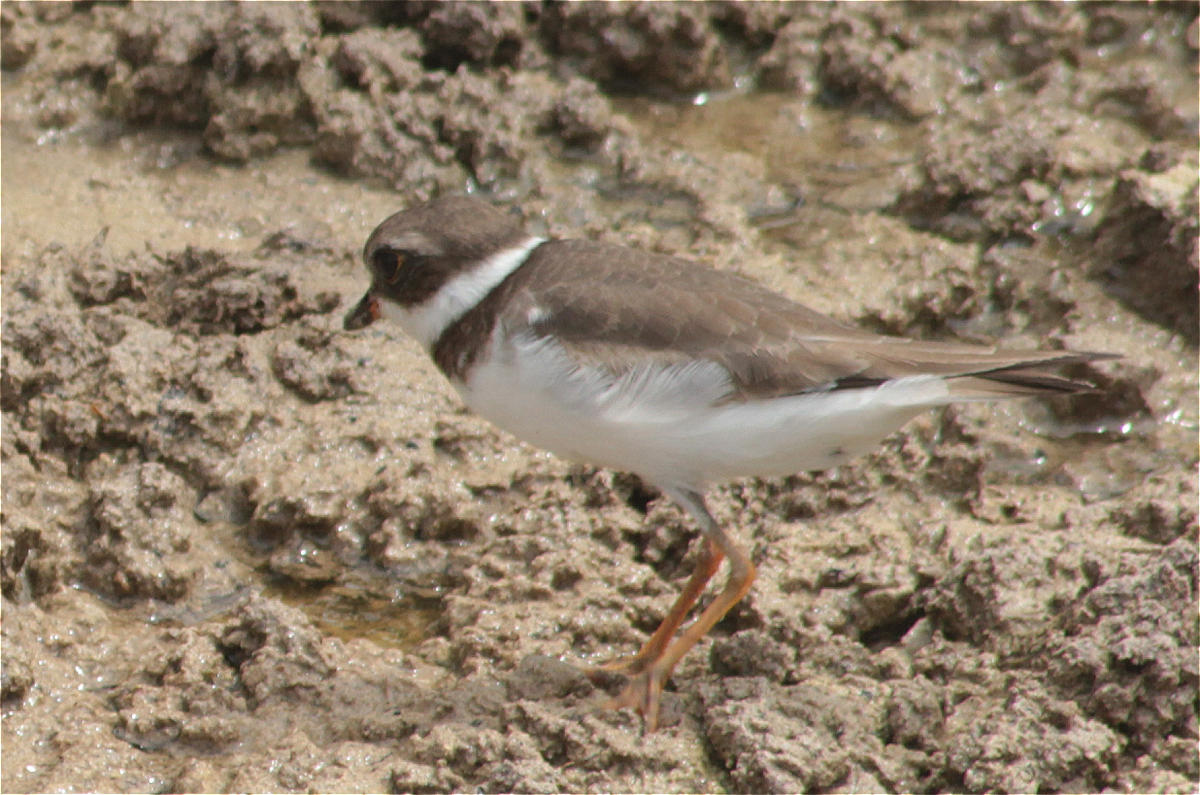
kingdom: Animalia
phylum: Chordata
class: Aves
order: Charadriiformes
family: Charadriidae
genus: Charadrius
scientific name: Charadrius semipalmatus
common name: Semipalmated plover
